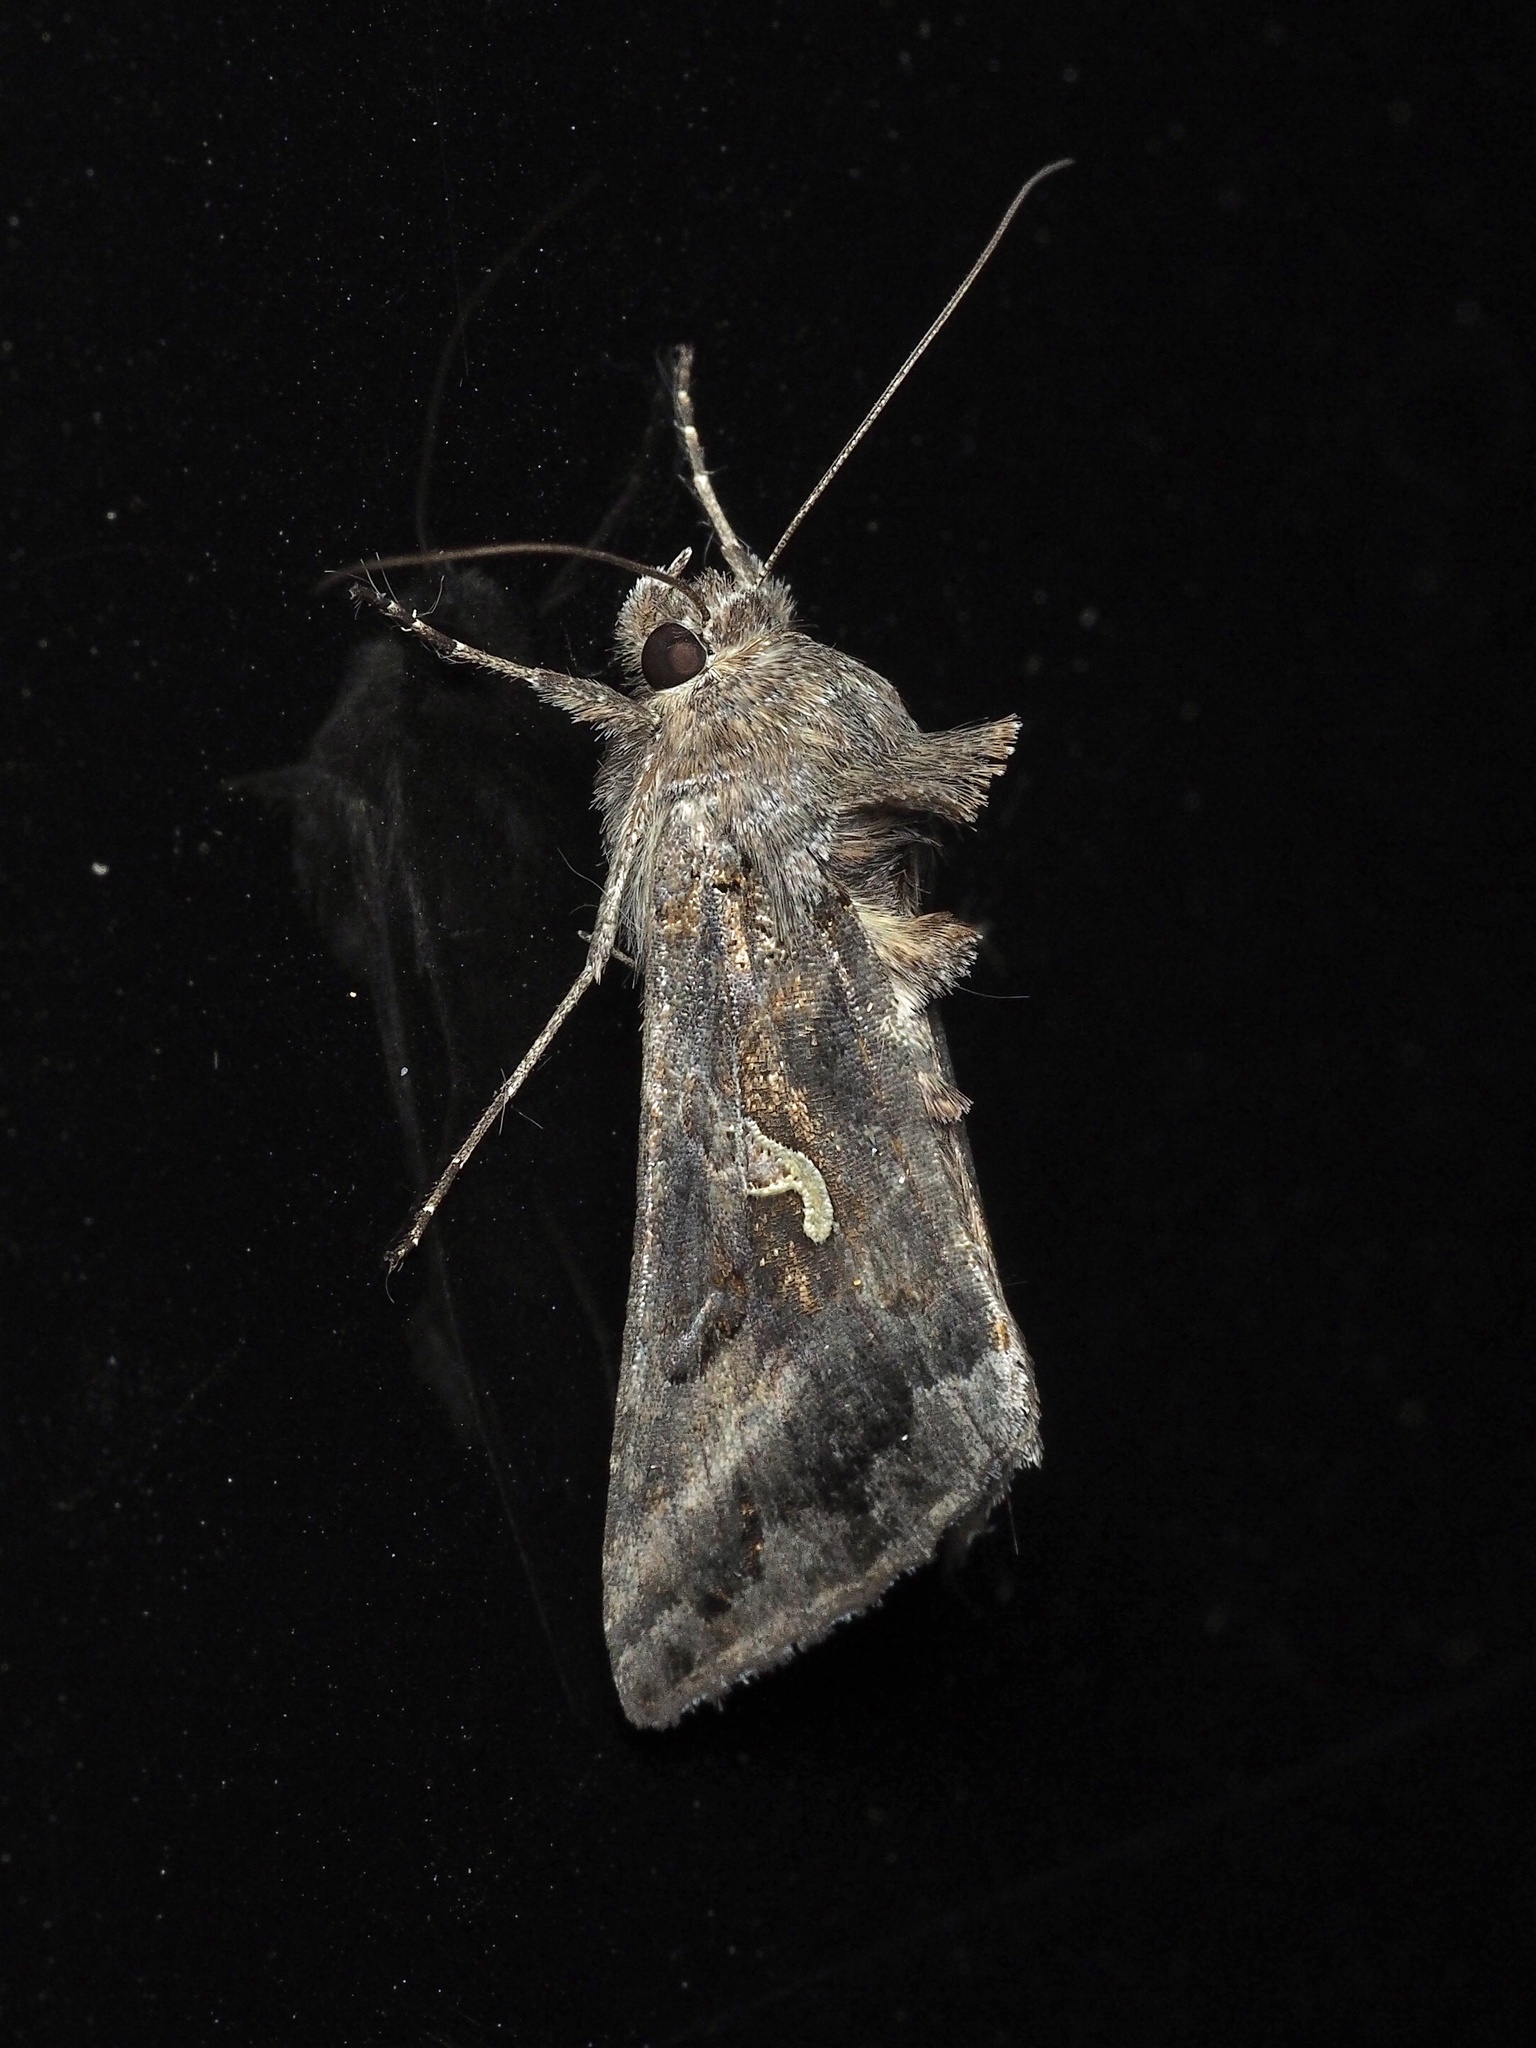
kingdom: Animalia
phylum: Arthropoda
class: Insecta
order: Lepidoptera
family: Noctuidae
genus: Autographa
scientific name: Autographa gamma
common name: Silver y
